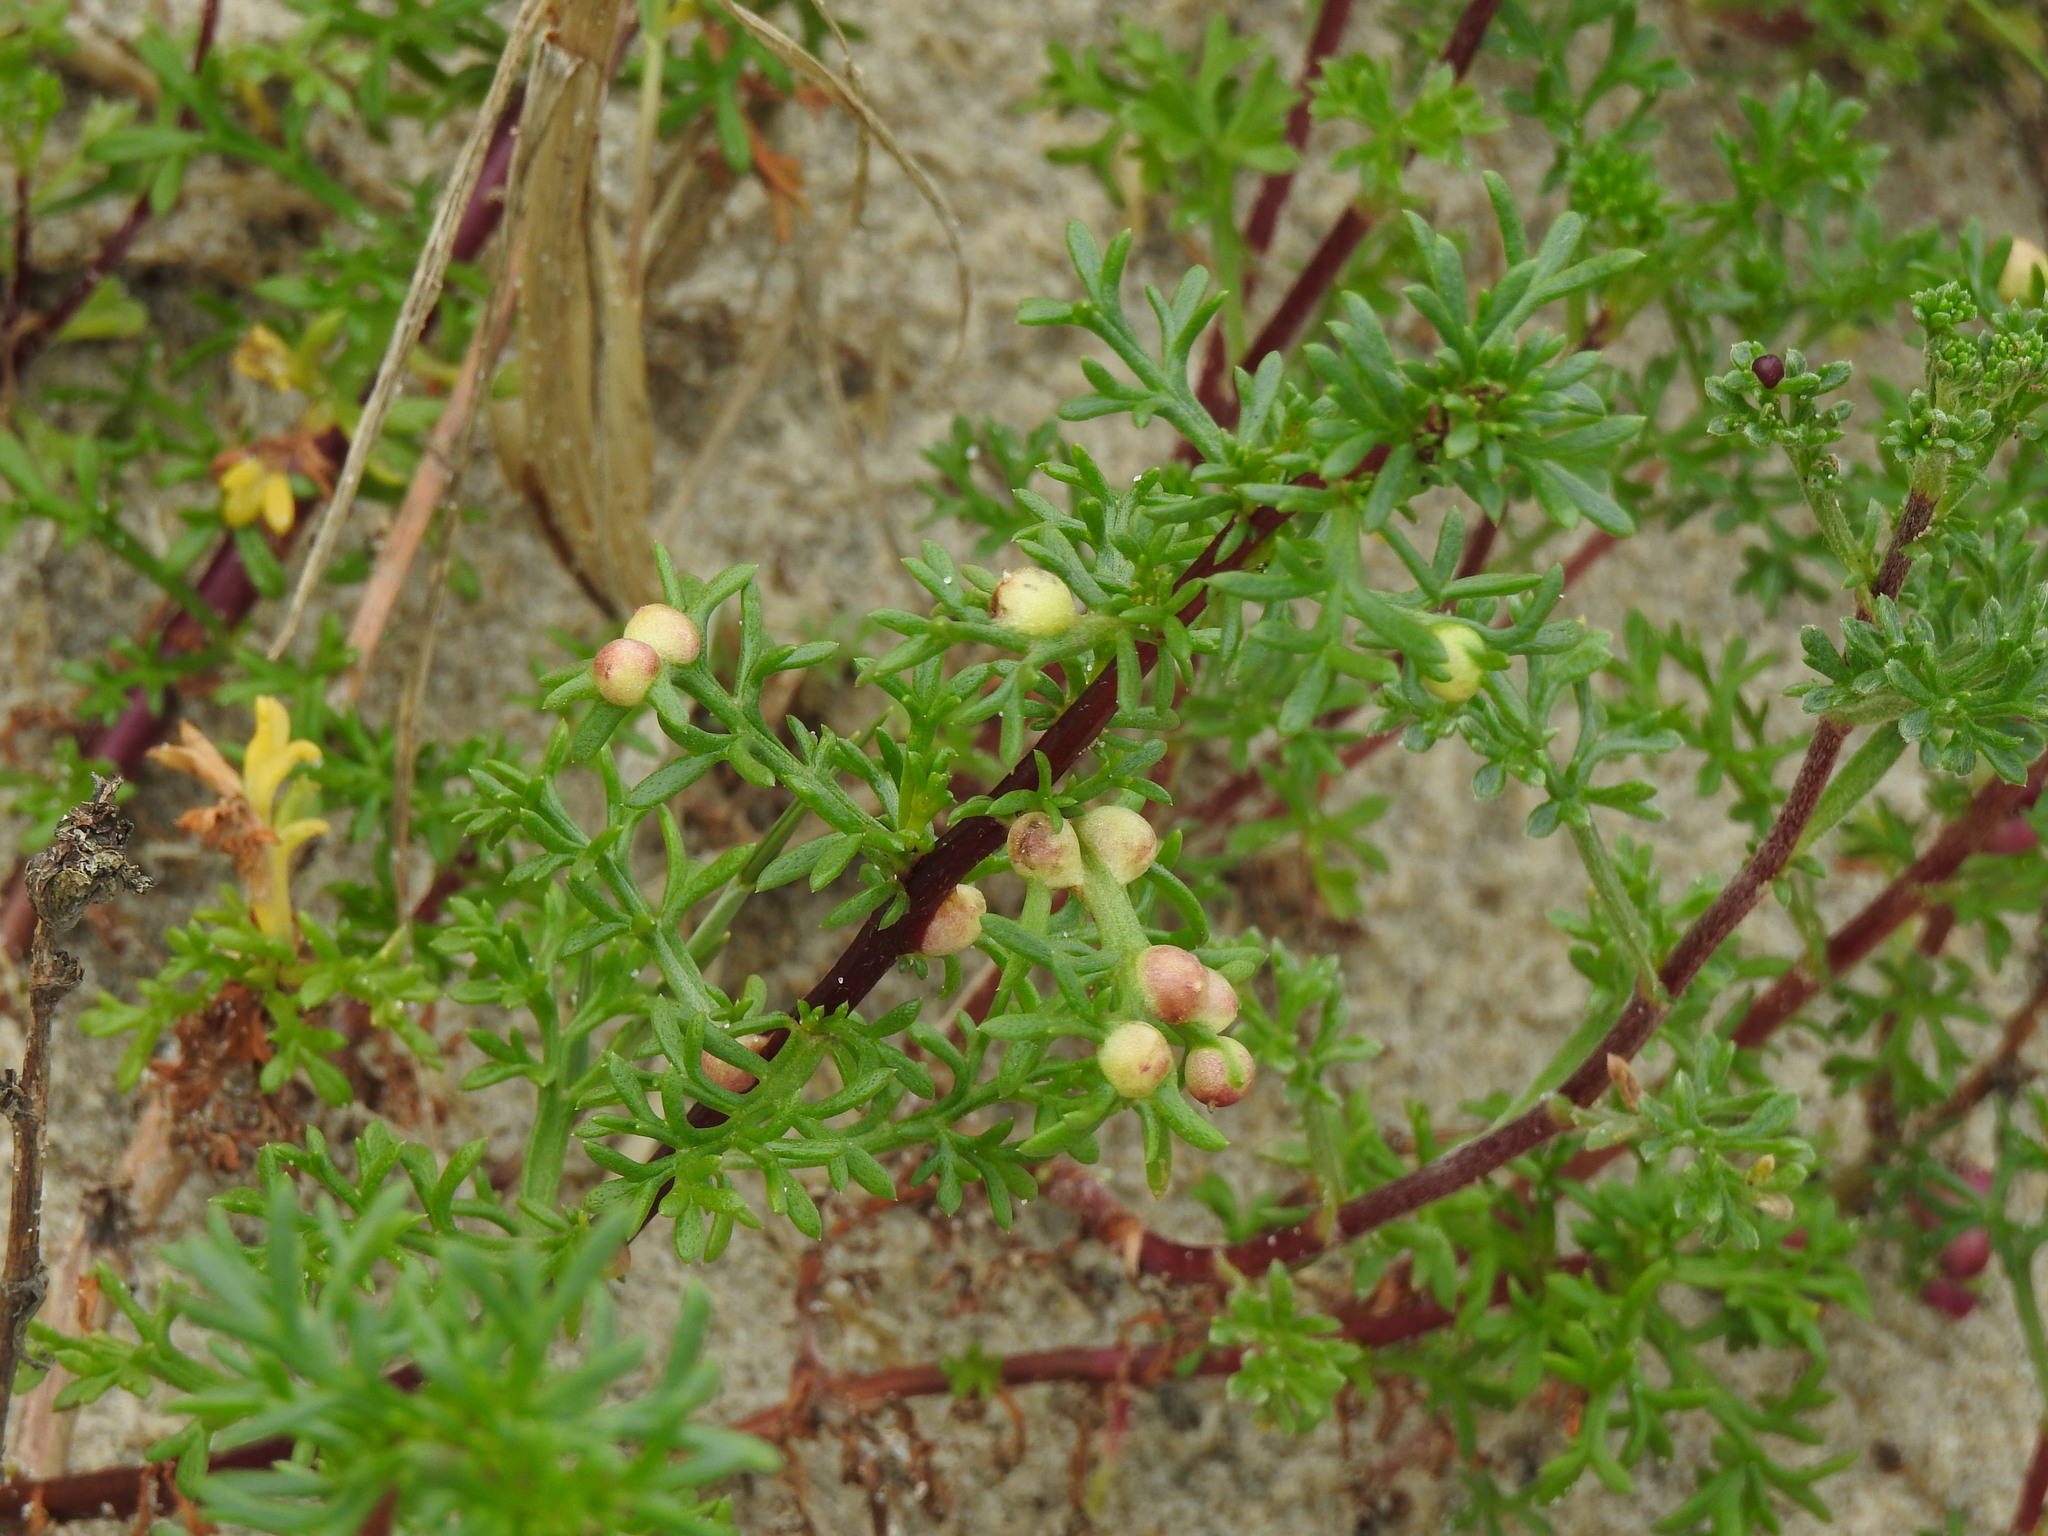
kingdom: Animalia
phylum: Arthropoda
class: Insecta
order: Diptera
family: Cecidomyiidae
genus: Rhopalomyia
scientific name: Rhopalomyia baccarum
